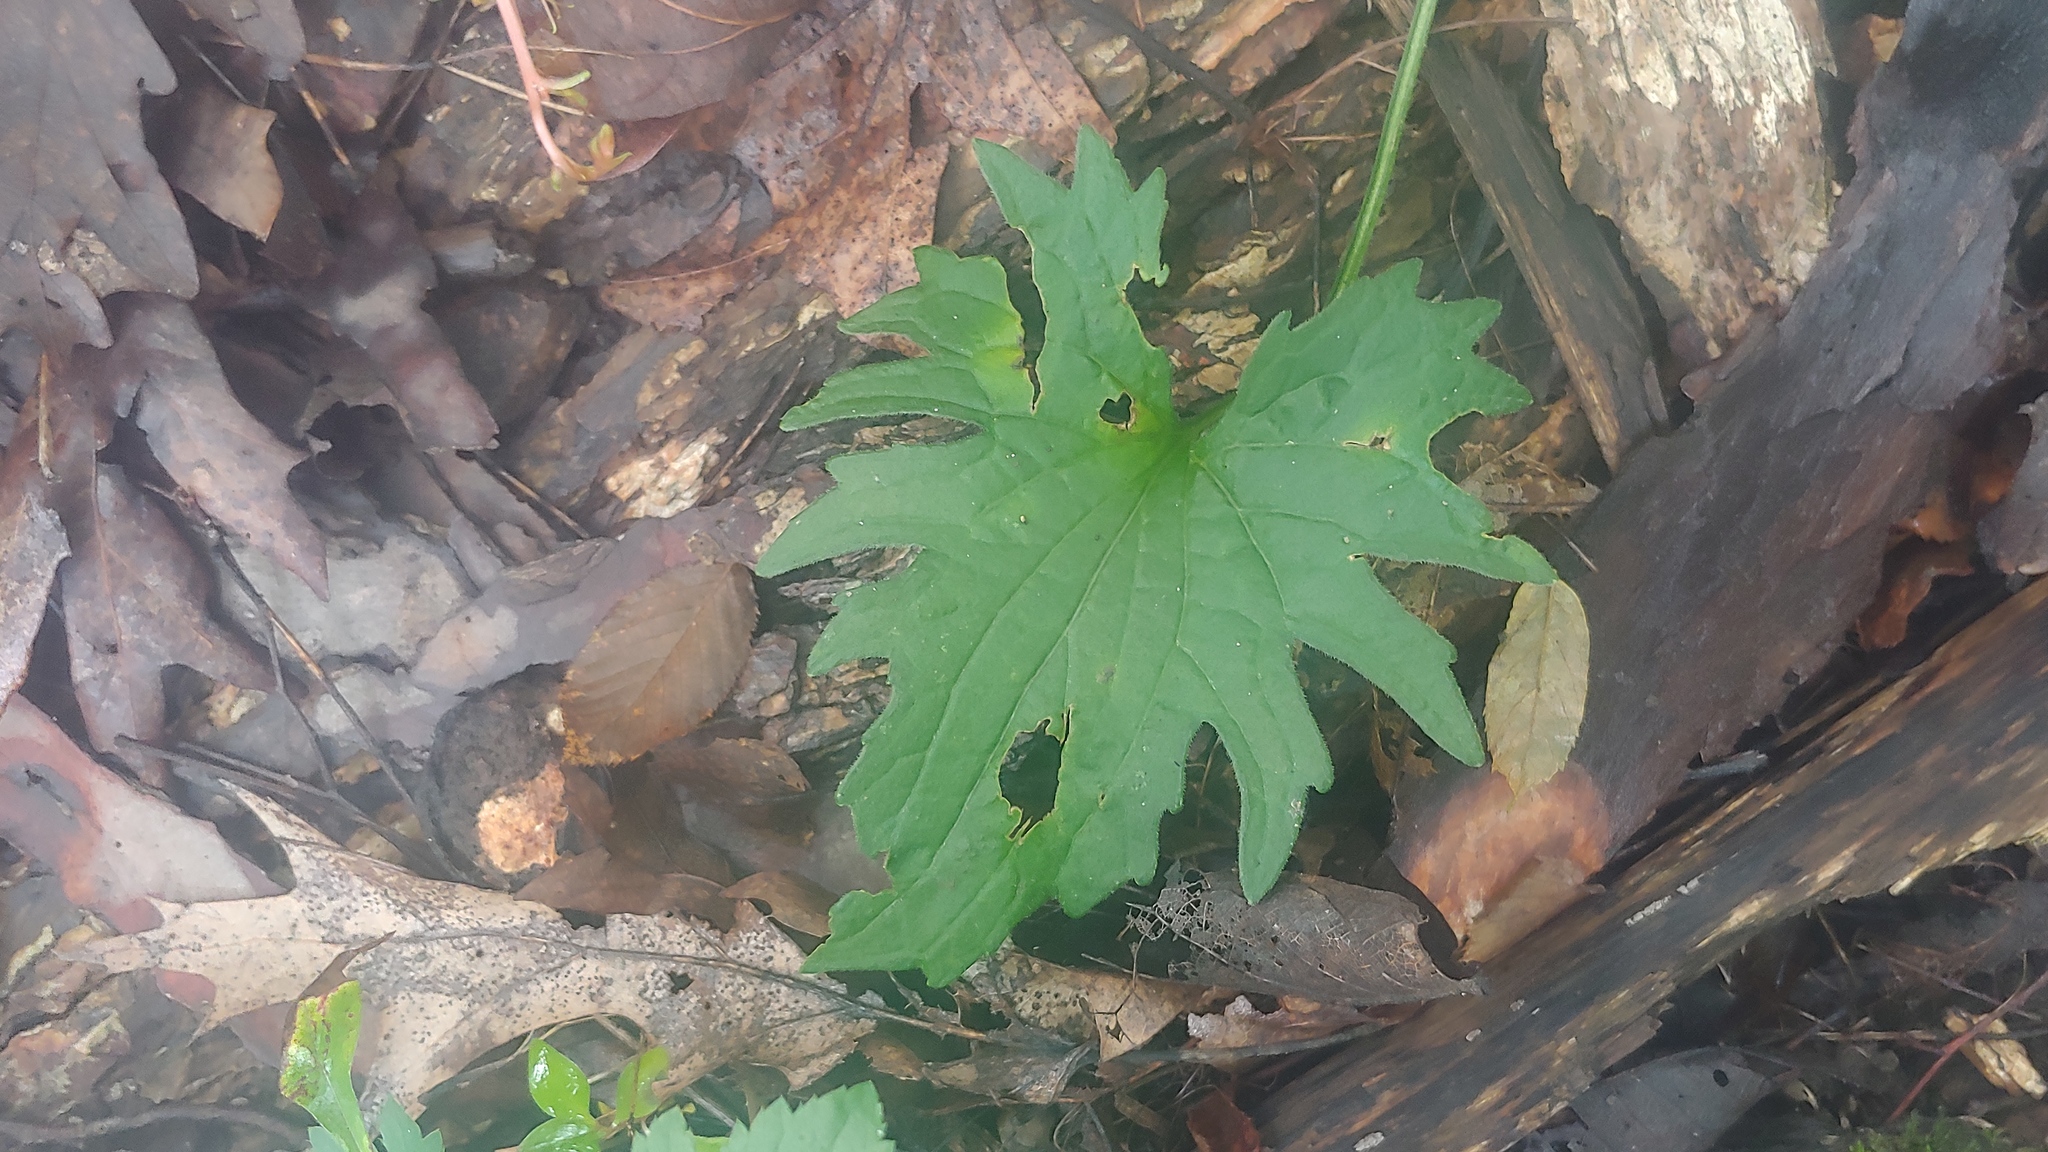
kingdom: Plantae
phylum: Tracheophyta
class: Magnoliopsida
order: Malpighiales
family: Violaceae
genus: Viola
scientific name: Viola subsinuata
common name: Wood violet
